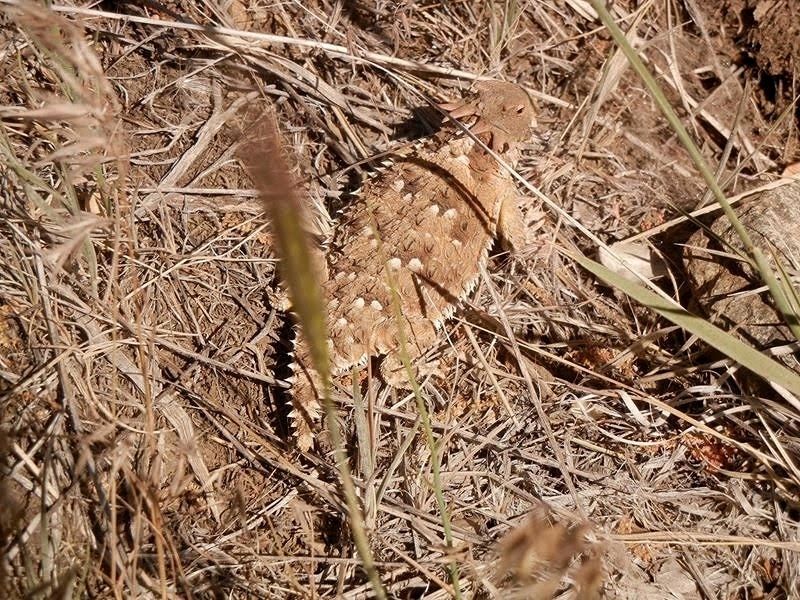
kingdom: Animalia
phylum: Chordata
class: Squamata
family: Phrynosomatidae
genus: Phrynosoma
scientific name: Phrynosoma blainvillii
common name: San diego horned lizard
